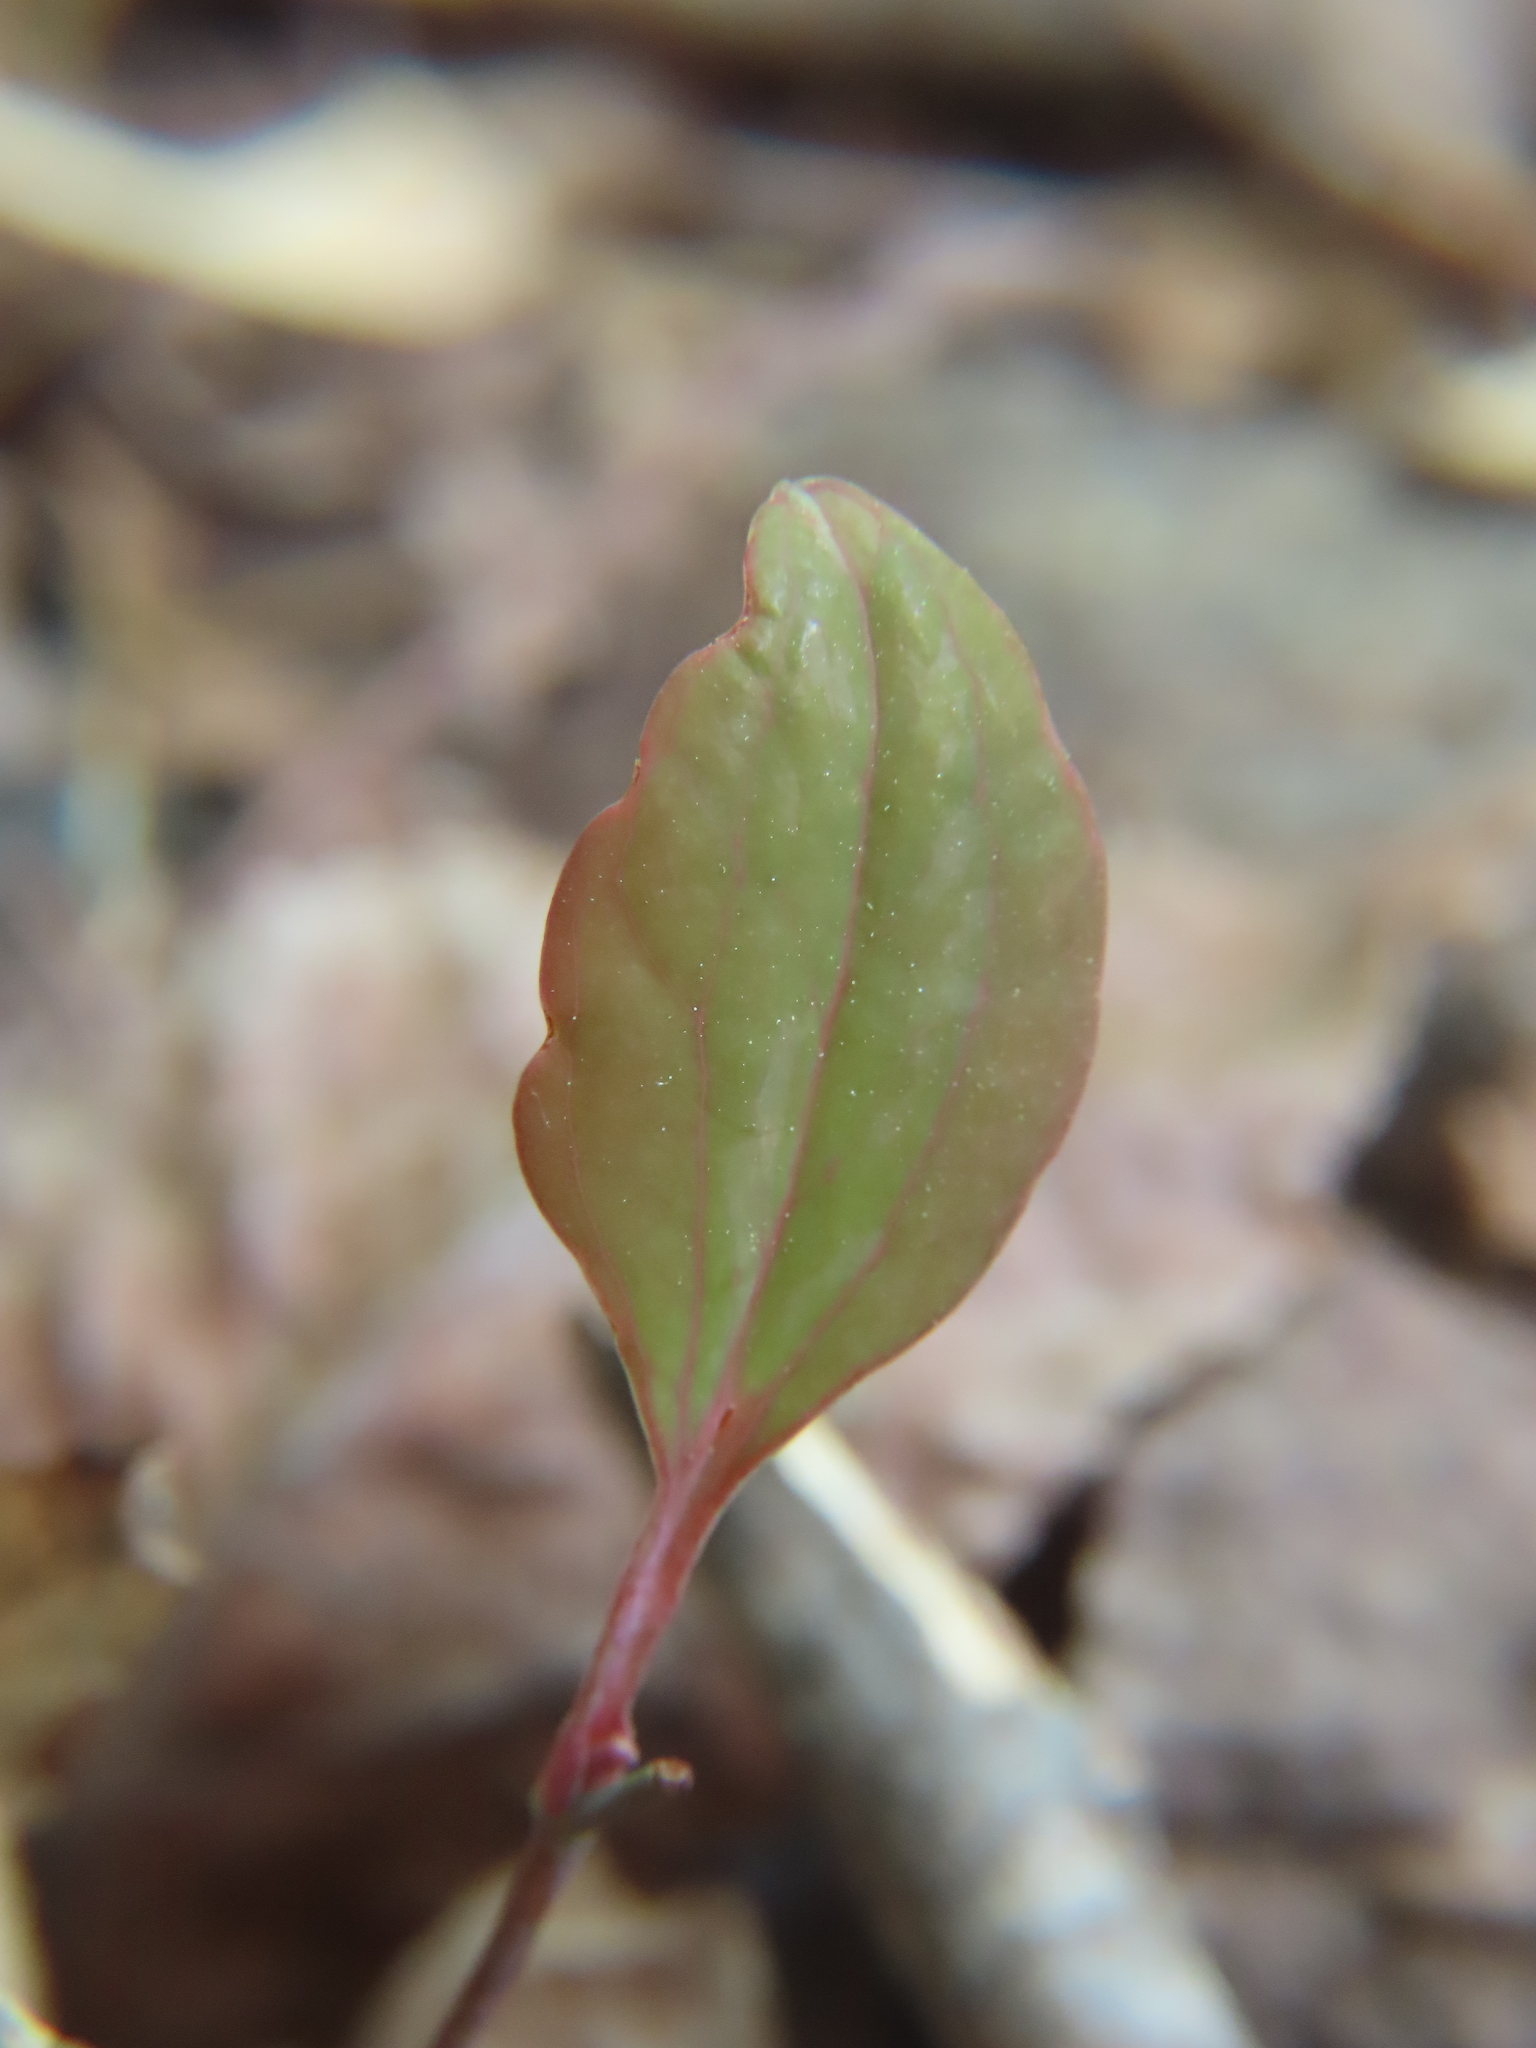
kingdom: Plantae
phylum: Tracheophyta
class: Liliopsida
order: Asparagales
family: Orchidaceae
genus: Tipularia
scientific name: Tipularia discolor
